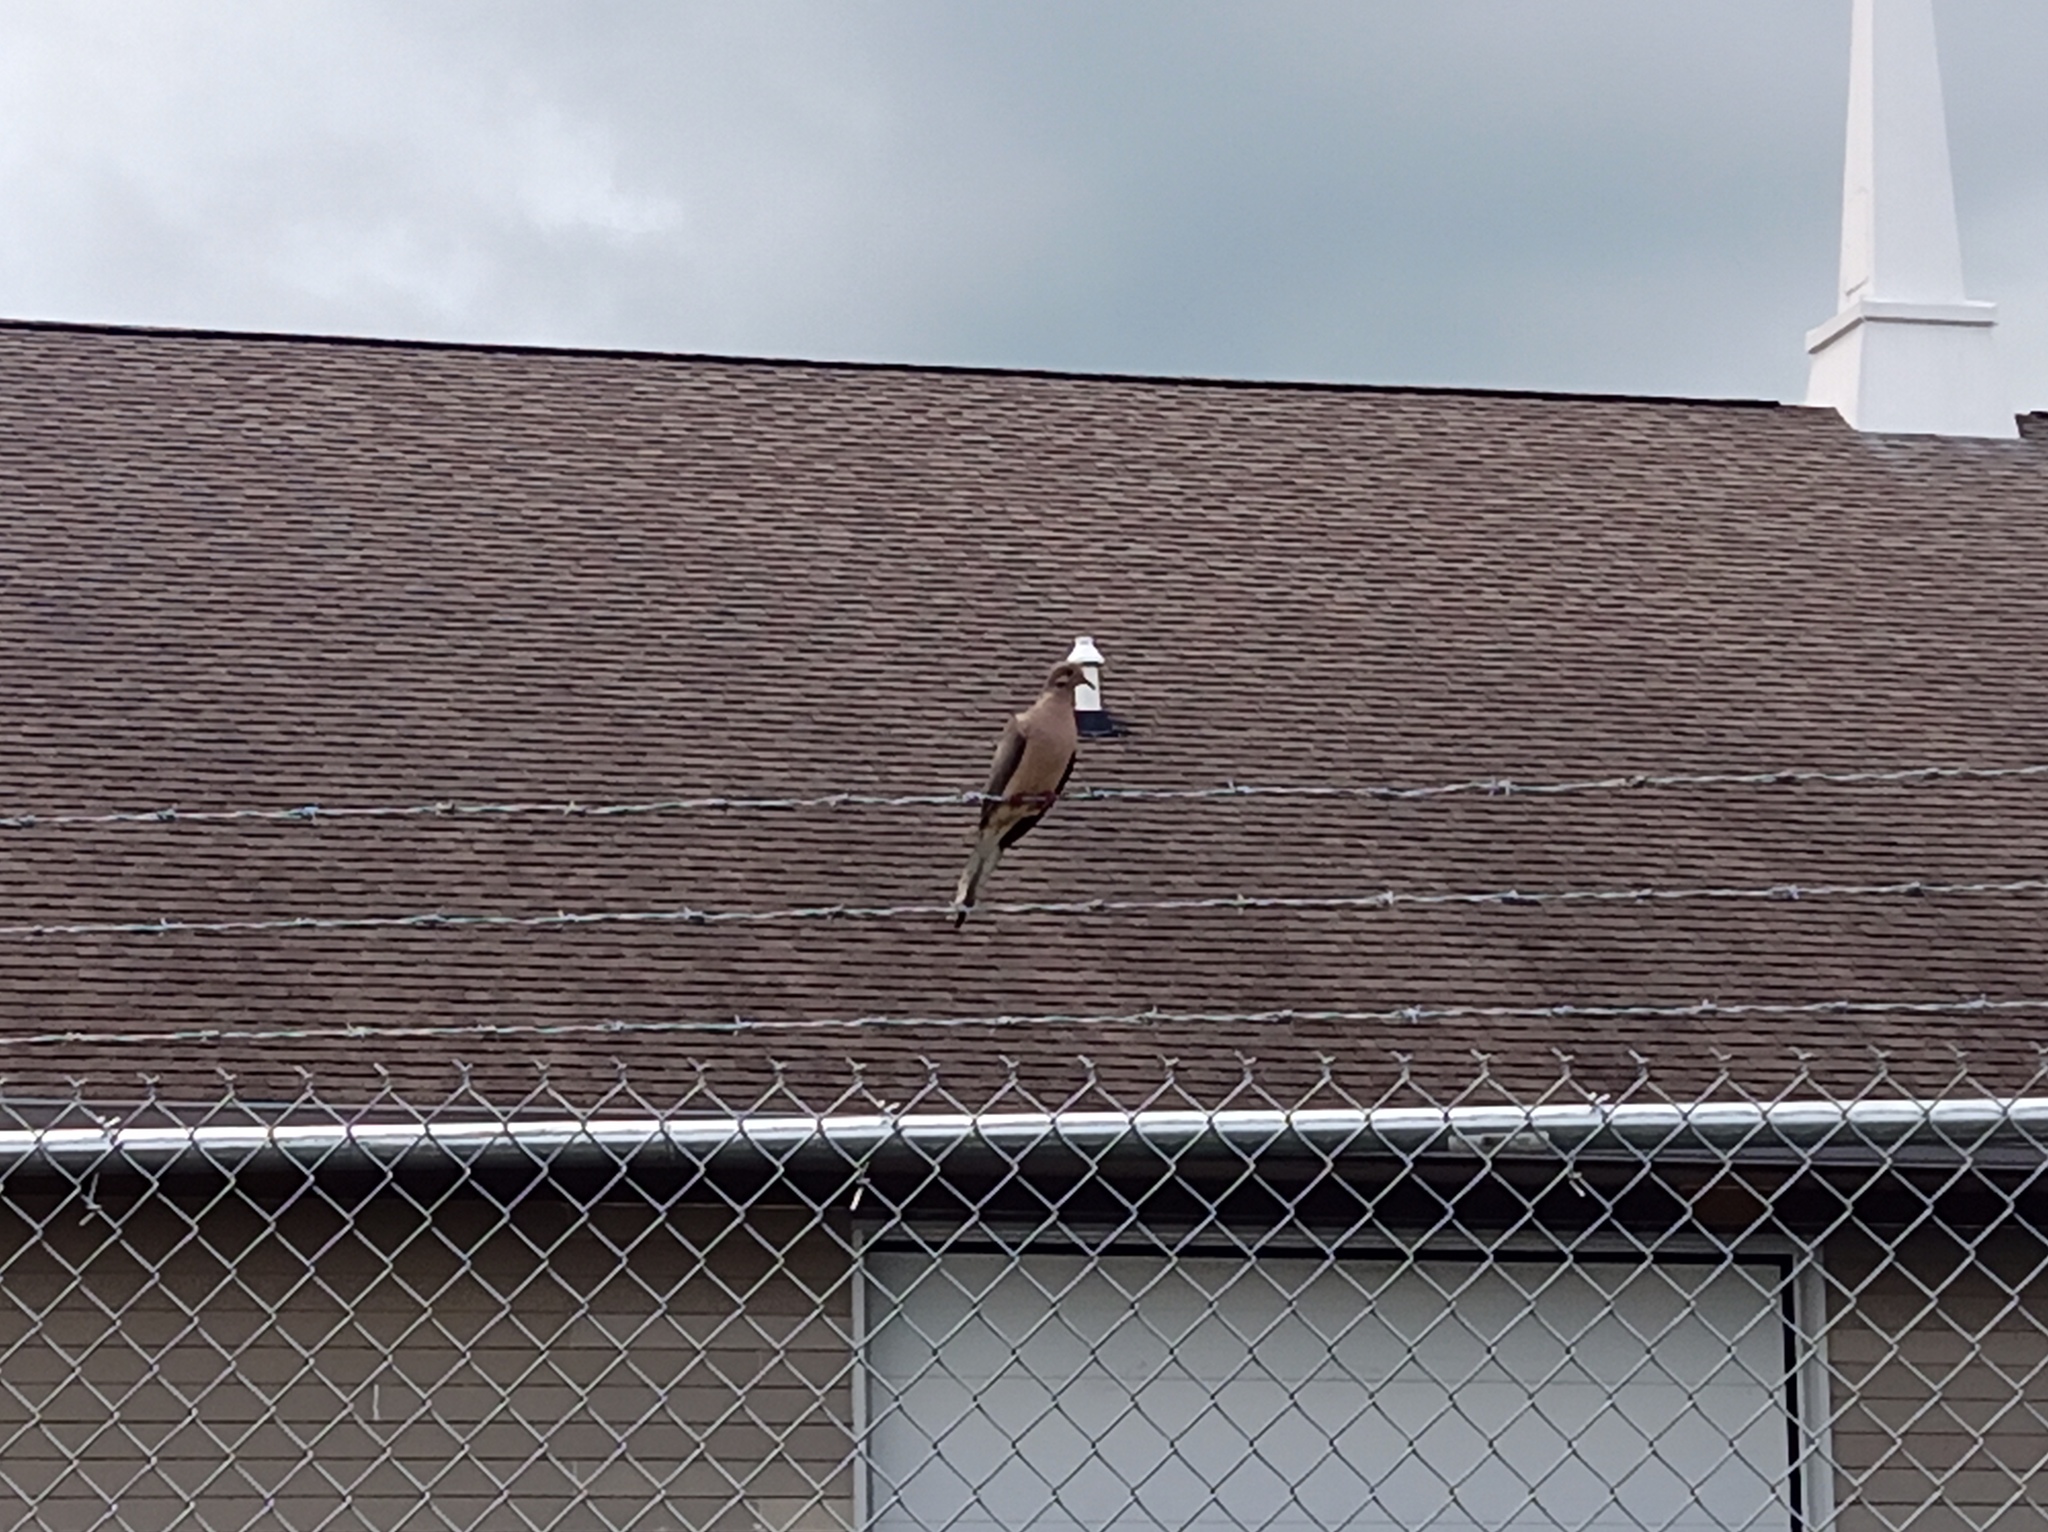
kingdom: Animalia
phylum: Chordata
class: Aves
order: Columbiformes
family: Columbidae
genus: Zenaida
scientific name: Zenaida macroura
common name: Mourning dove
